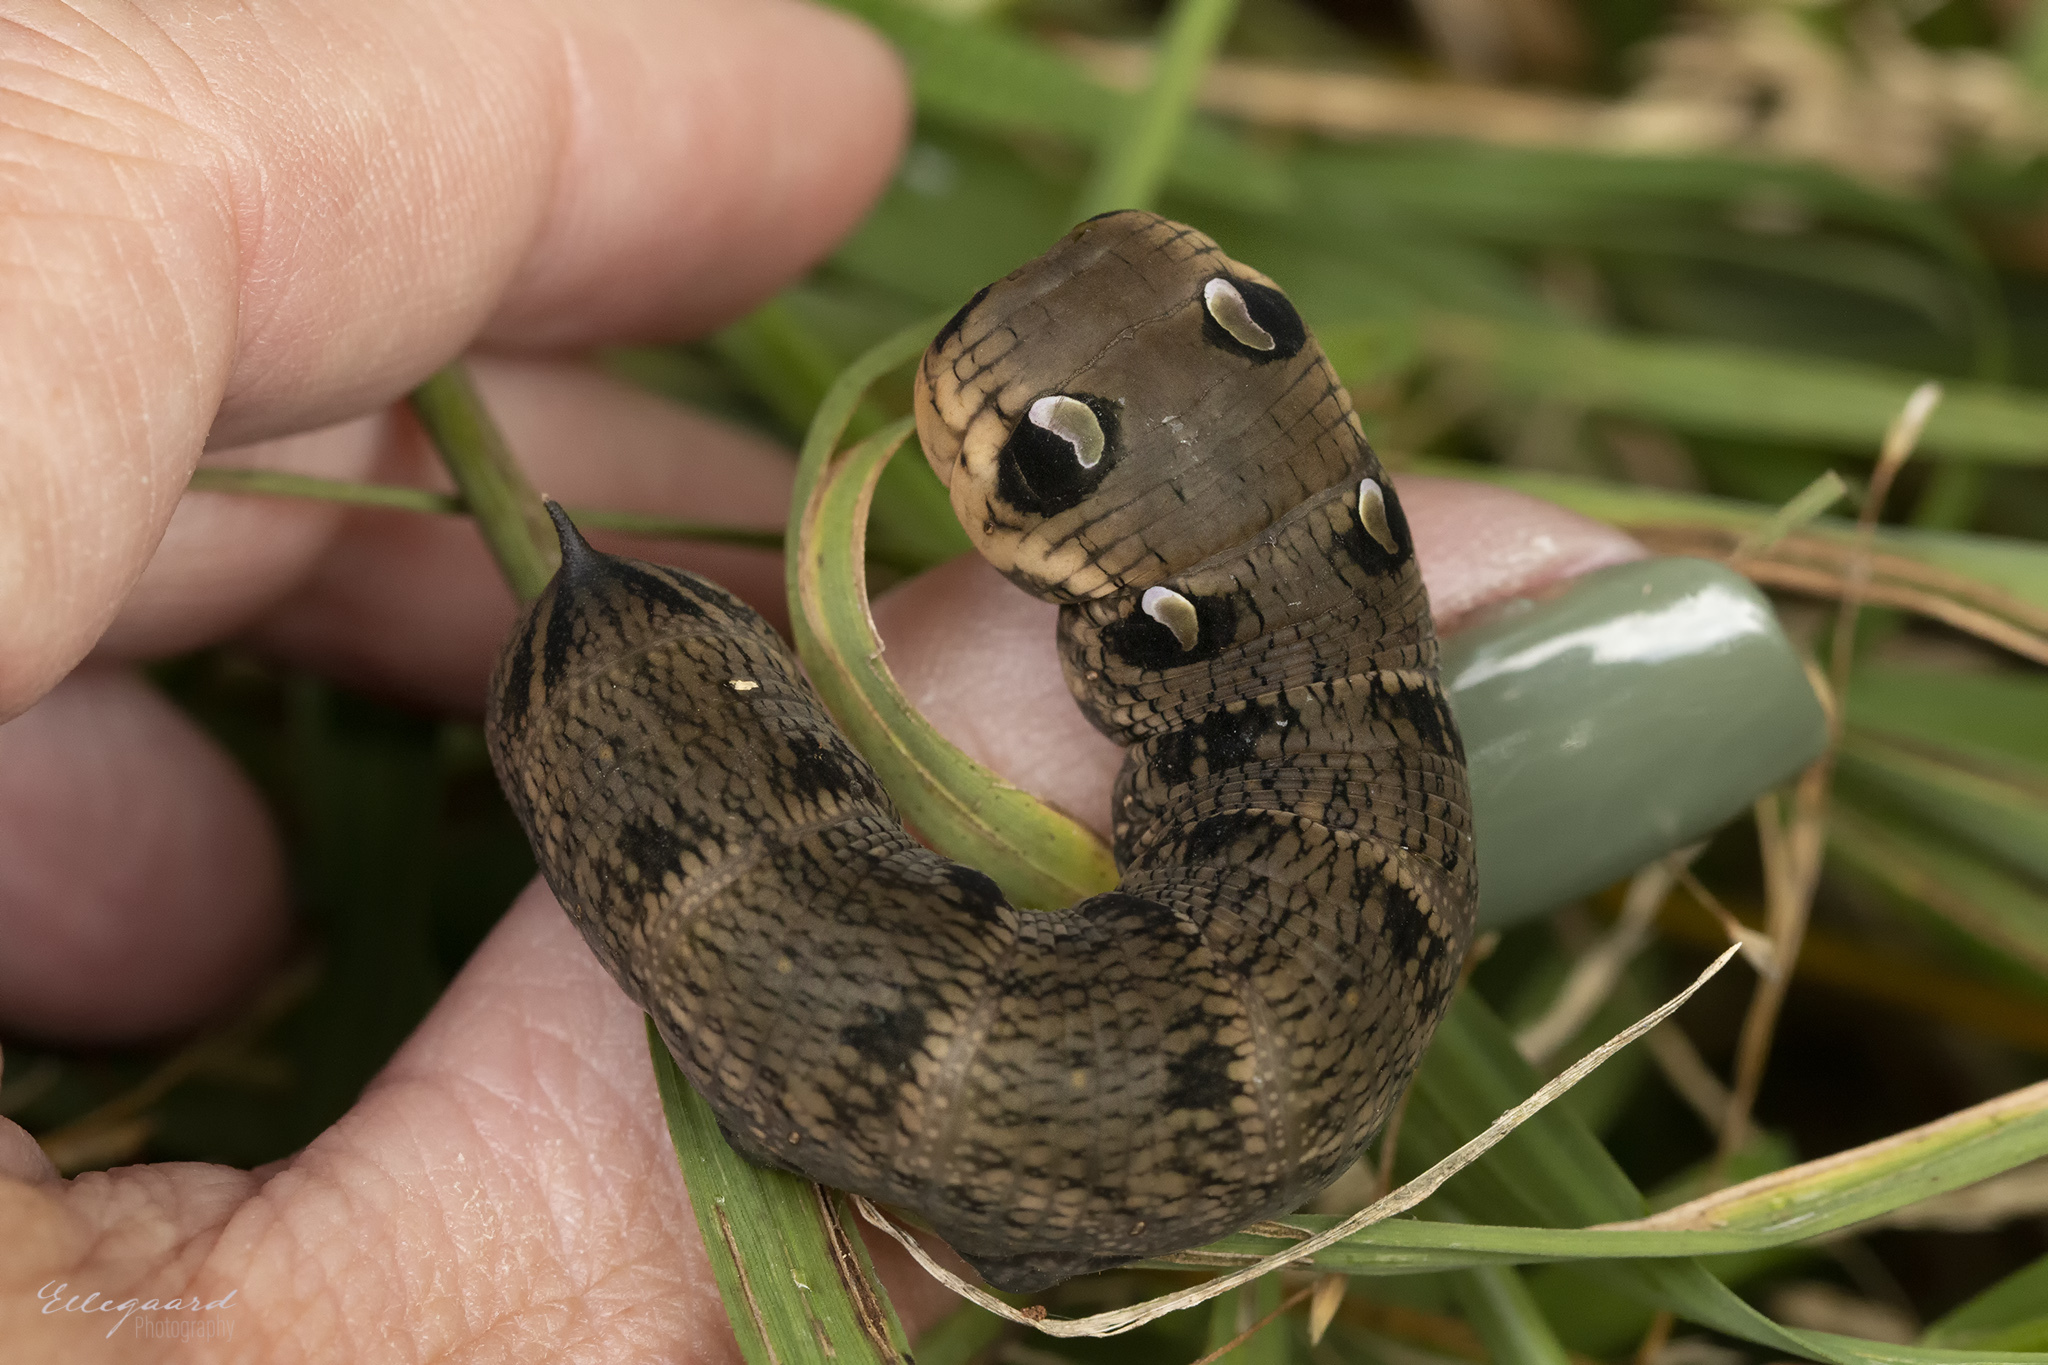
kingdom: Animalia
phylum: Arthropoda
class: Insecta
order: Lepidoptera
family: Sphingidae
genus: Deilephila
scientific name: Deilephila elpenor
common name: Elephant hawk-moth
